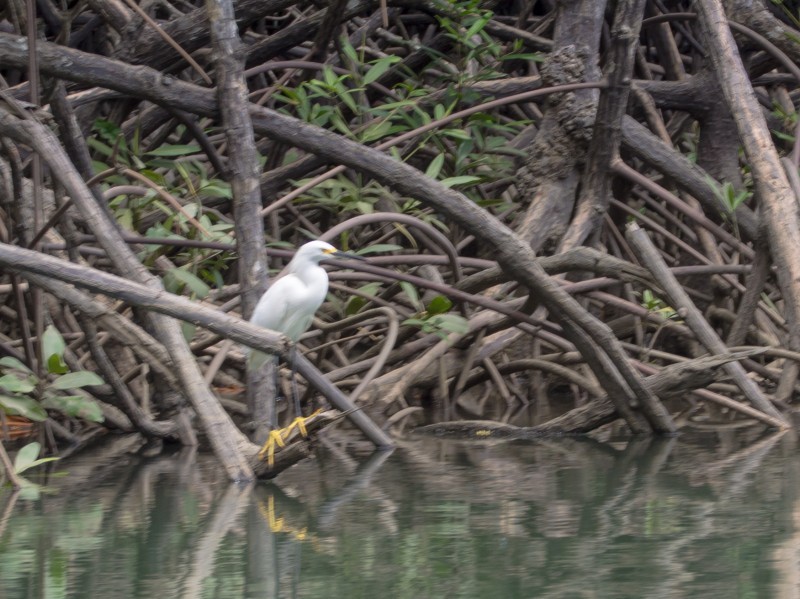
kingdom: Animalia
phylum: Chordata
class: Aves
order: Pelecaniformes
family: Ardeidae
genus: Egretta
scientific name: Egretta thula
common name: Snowy egret
